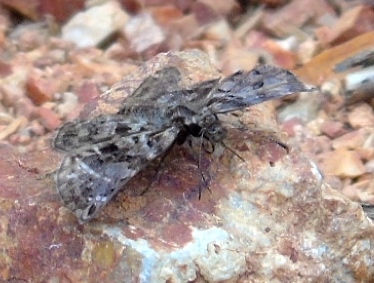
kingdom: Animalia
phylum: Arthropoda
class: Insecta
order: Lepidoptera
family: Hesperiidae
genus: Gorgythion
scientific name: Gorgythion begga
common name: Variegated skipper
